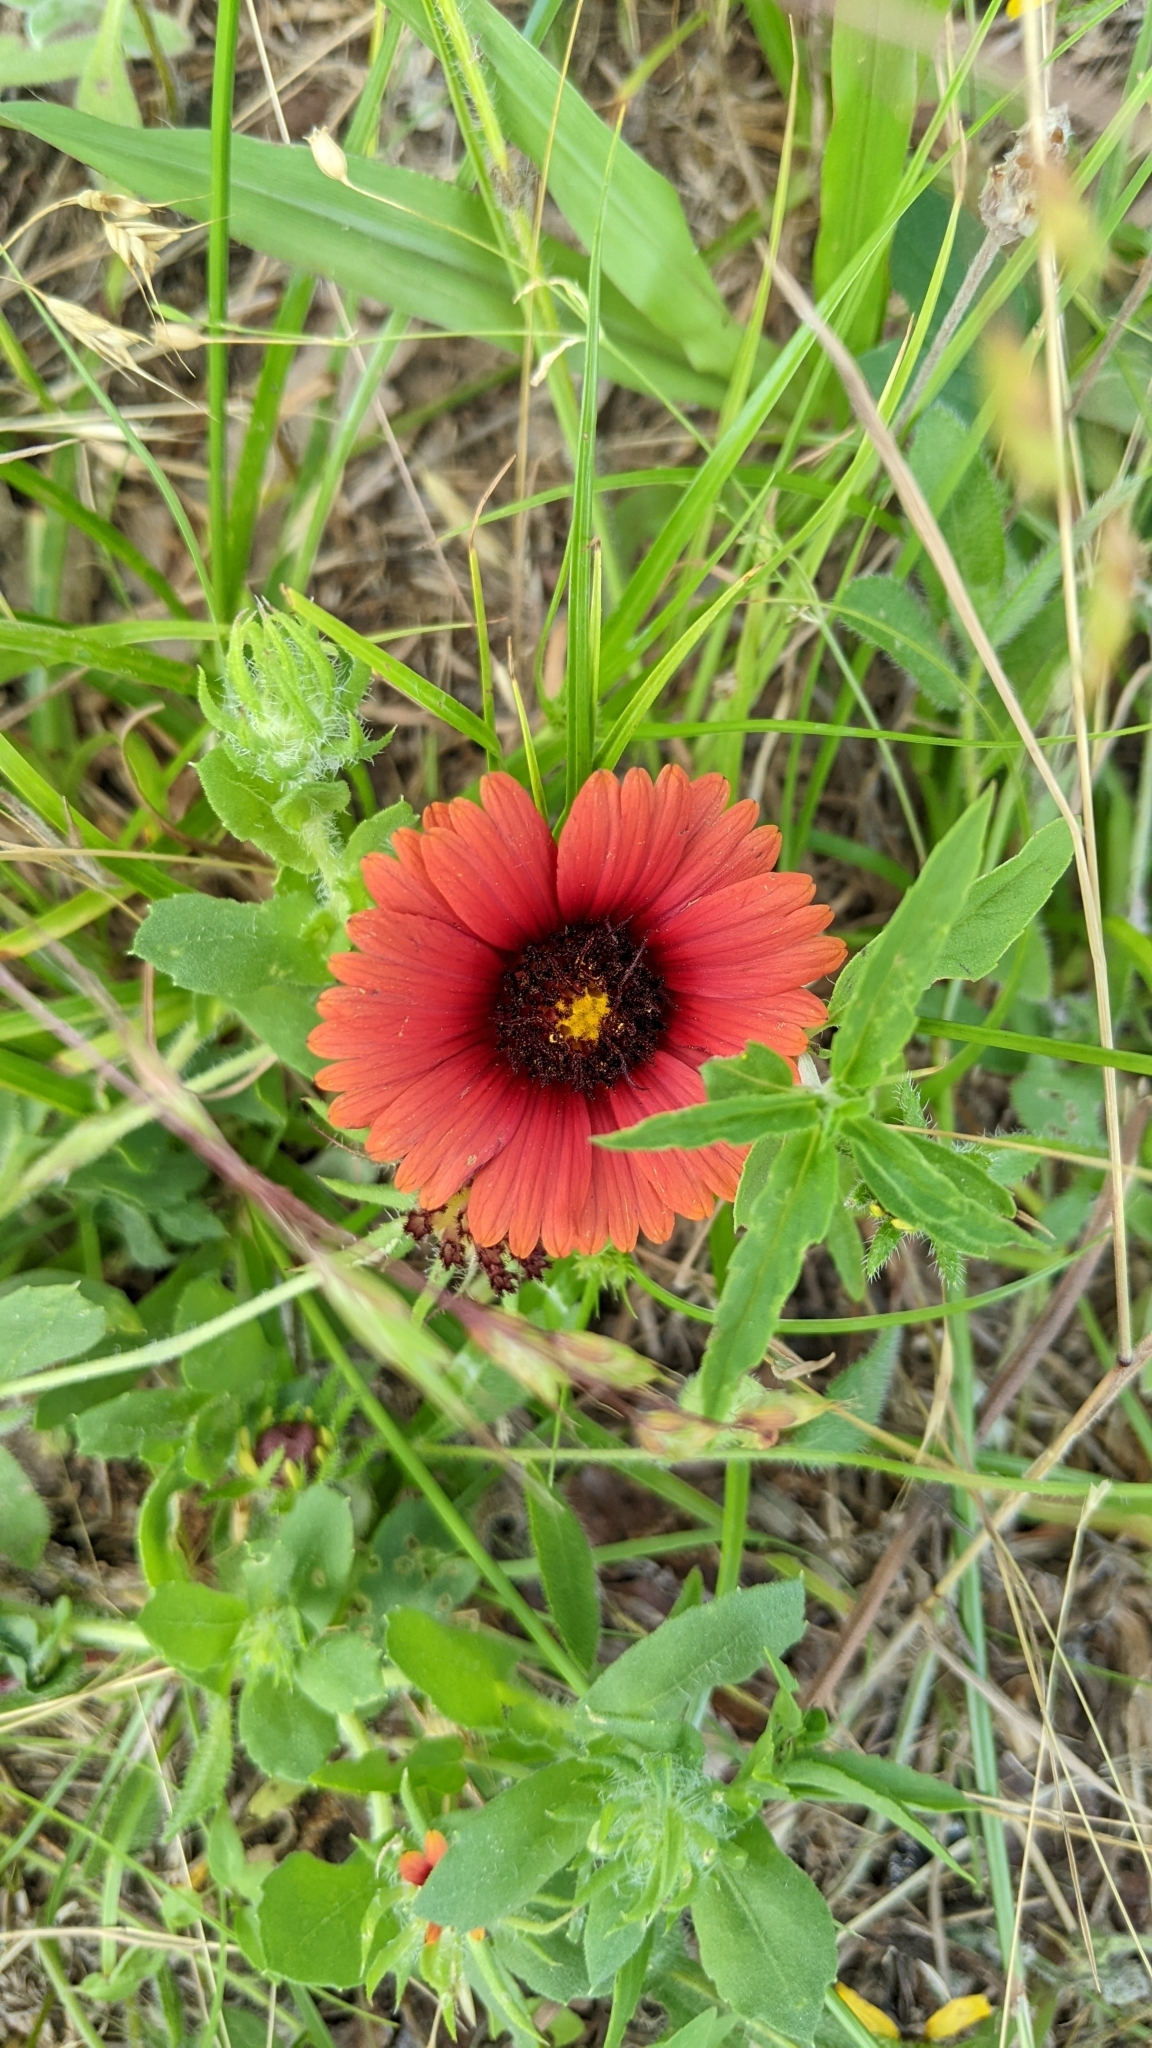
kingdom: Plantae
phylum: Tracheophyta
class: Magnoliopsida
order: Asterales
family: Asteraceae
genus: Gaillardia
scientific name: Gaillardia amblyodon
